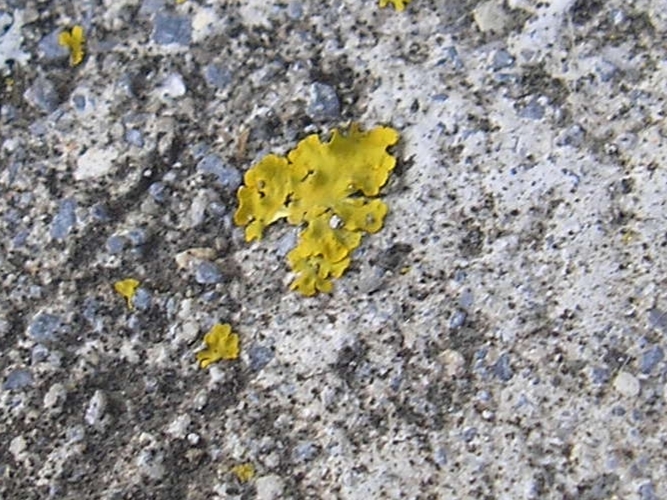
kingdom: Fungi
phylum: Ascomycota
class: Lecanoromycetes
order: Teloschistales
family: Teloschistaceae
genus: Xanthoria
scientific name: Xanthoria parietina
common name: Common orange lichen
